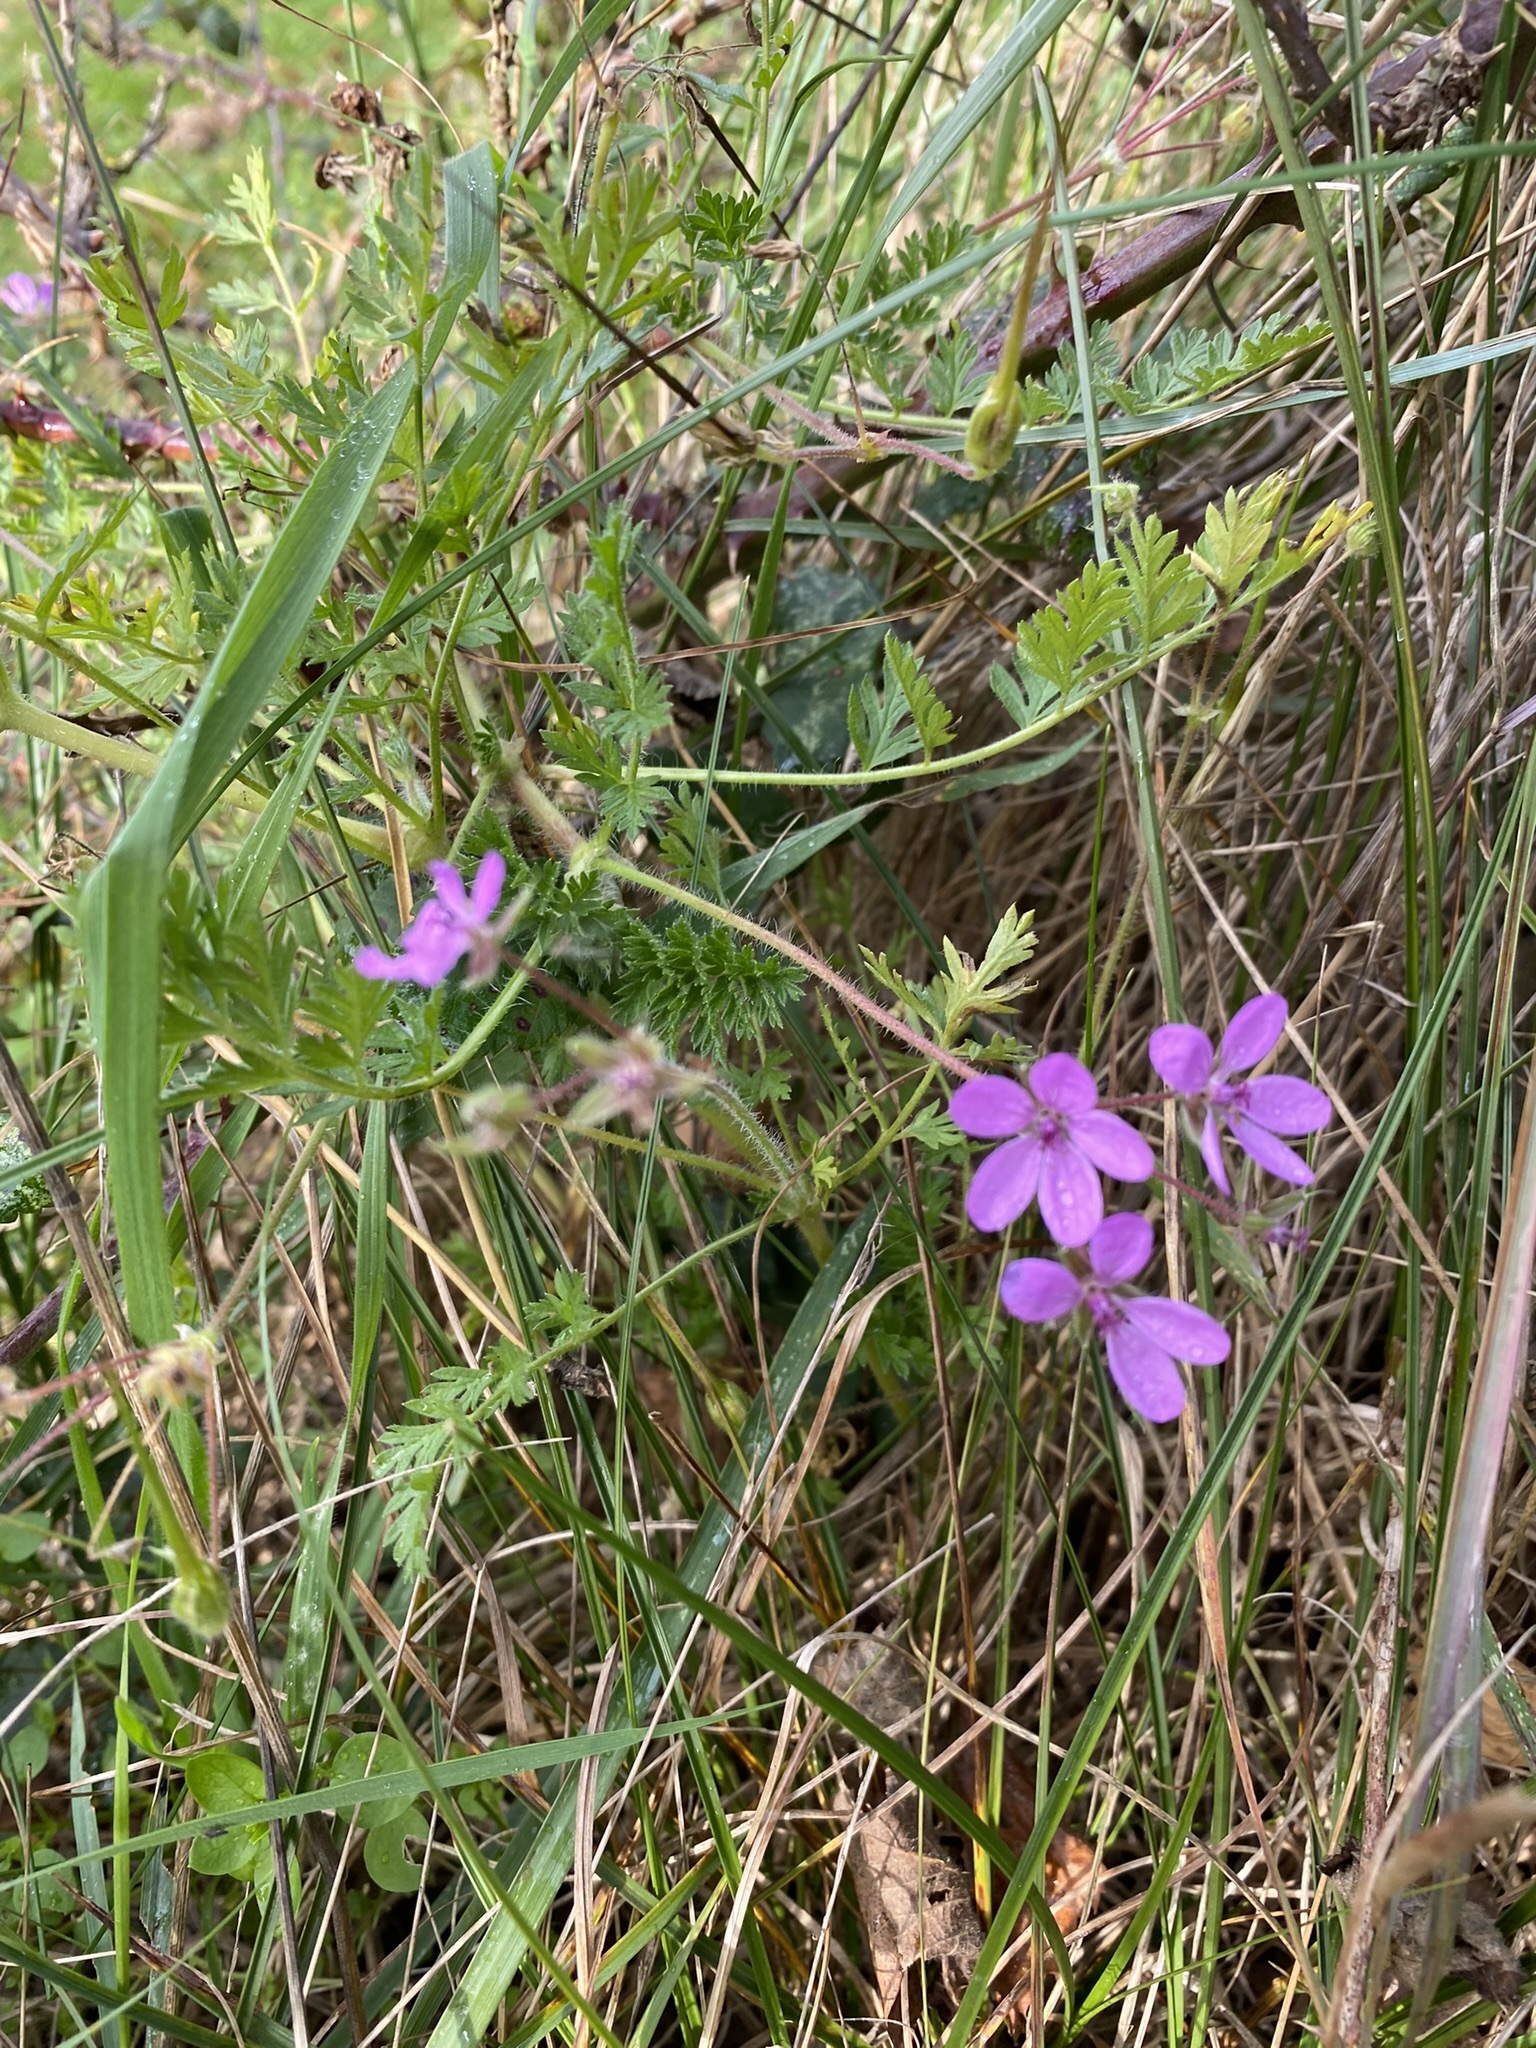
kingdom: Plantae
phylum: Tracheophyta
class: Magnoliopsida
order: Geraniales
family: Geraniaceae
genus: Erodium
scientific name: Erodium cicutarium
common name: Common stork's-bill
